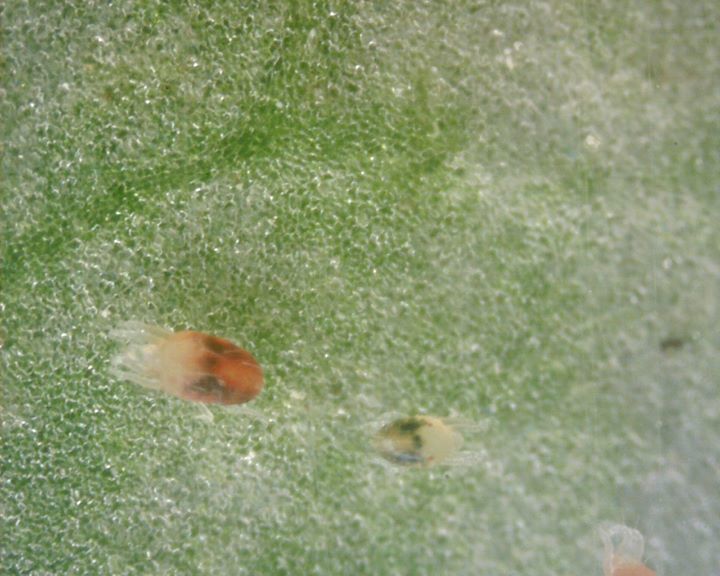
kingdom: Animalia
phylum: Arthropoda
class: Arachnida
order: Trombidiformes
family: Tetranychidae
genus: Tetranychus
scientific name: Tetranychus urticae
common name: Carmine spider mite
